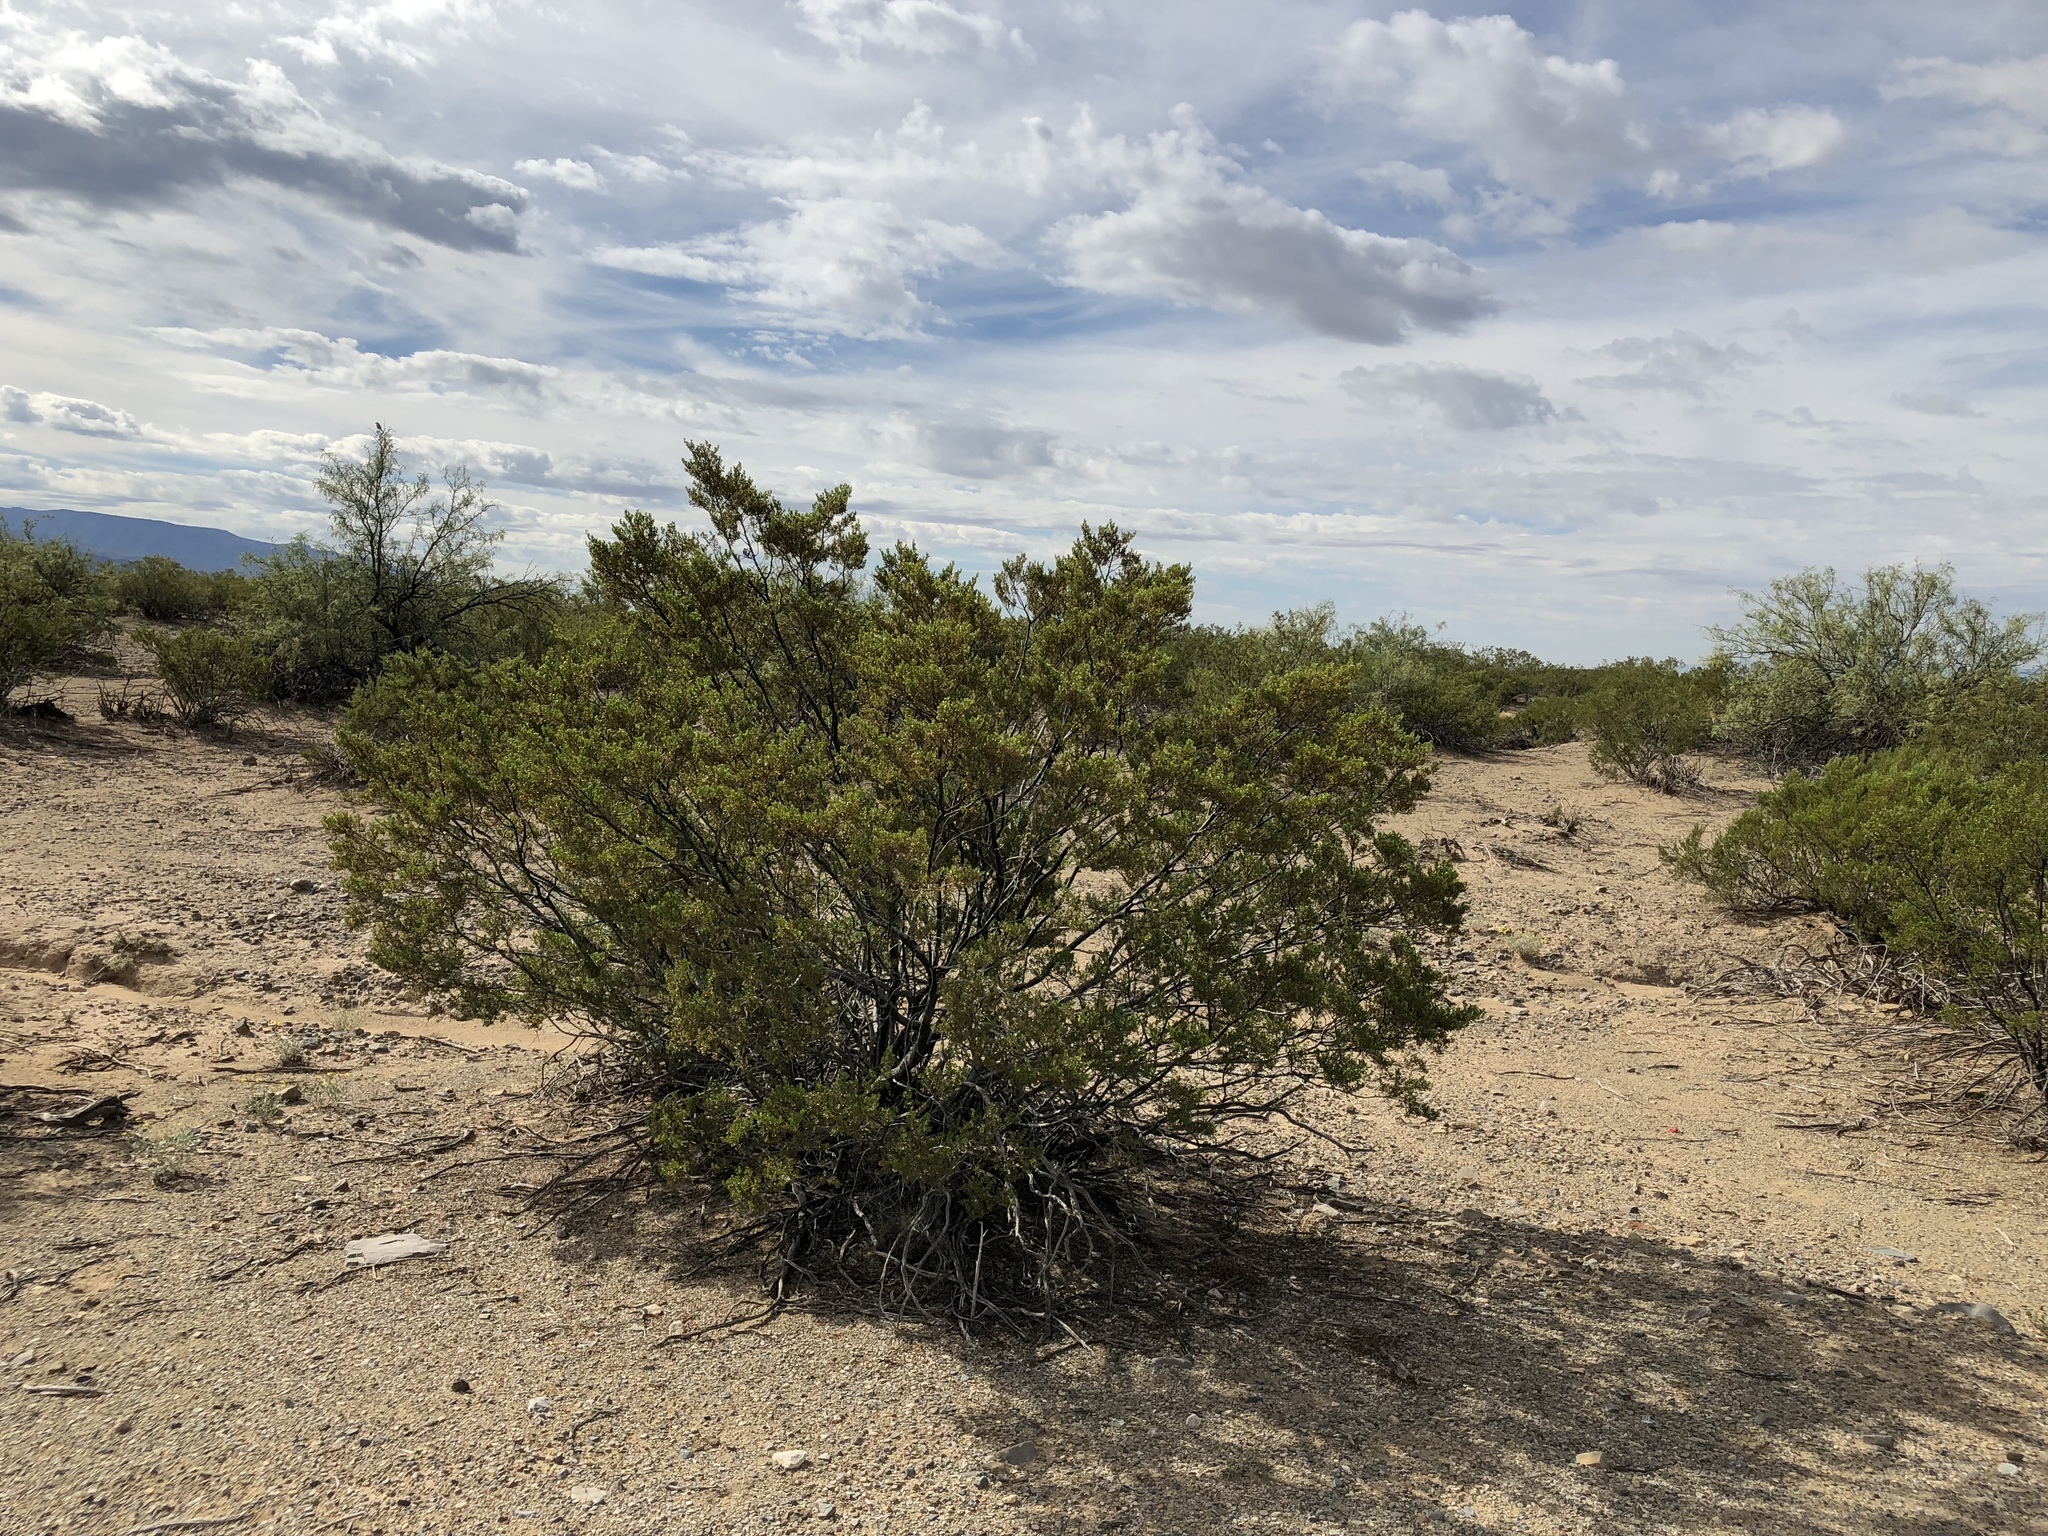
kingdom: Plantae
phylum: Tracheophyta
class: Magnoliopsida
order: Zygophyllales
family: Zygophyllaceae
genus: Larrea
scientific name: Larrea tridentata
